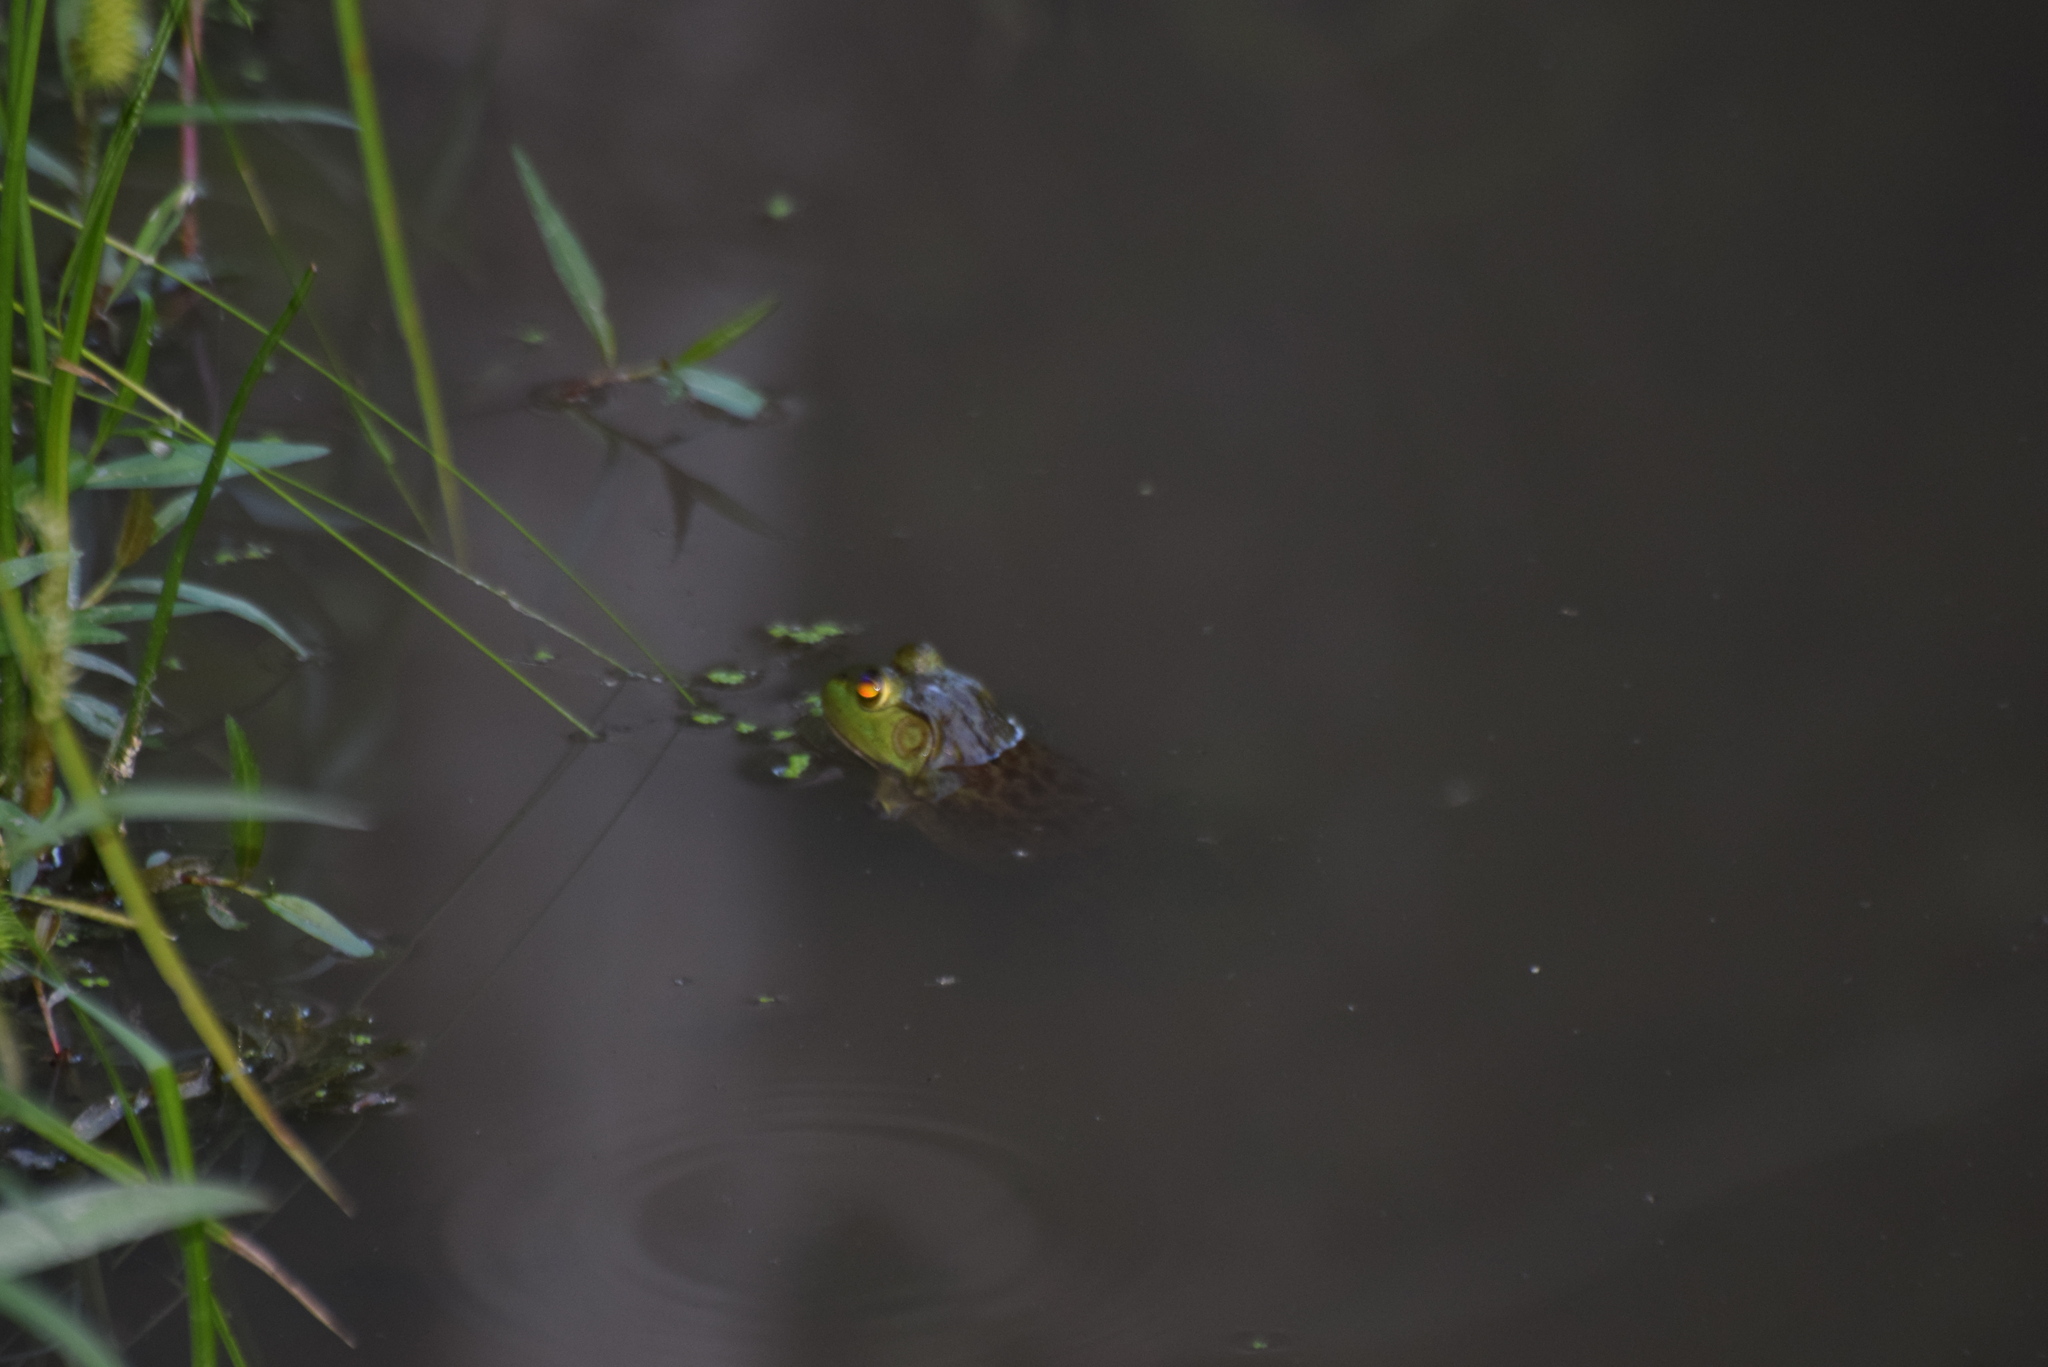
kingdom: Animalia
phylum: Chordata
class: Amphibia
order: Anura
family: Ranidae
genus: Lithobates
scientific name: Lithobates catesbeianus
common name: American bullfrog
